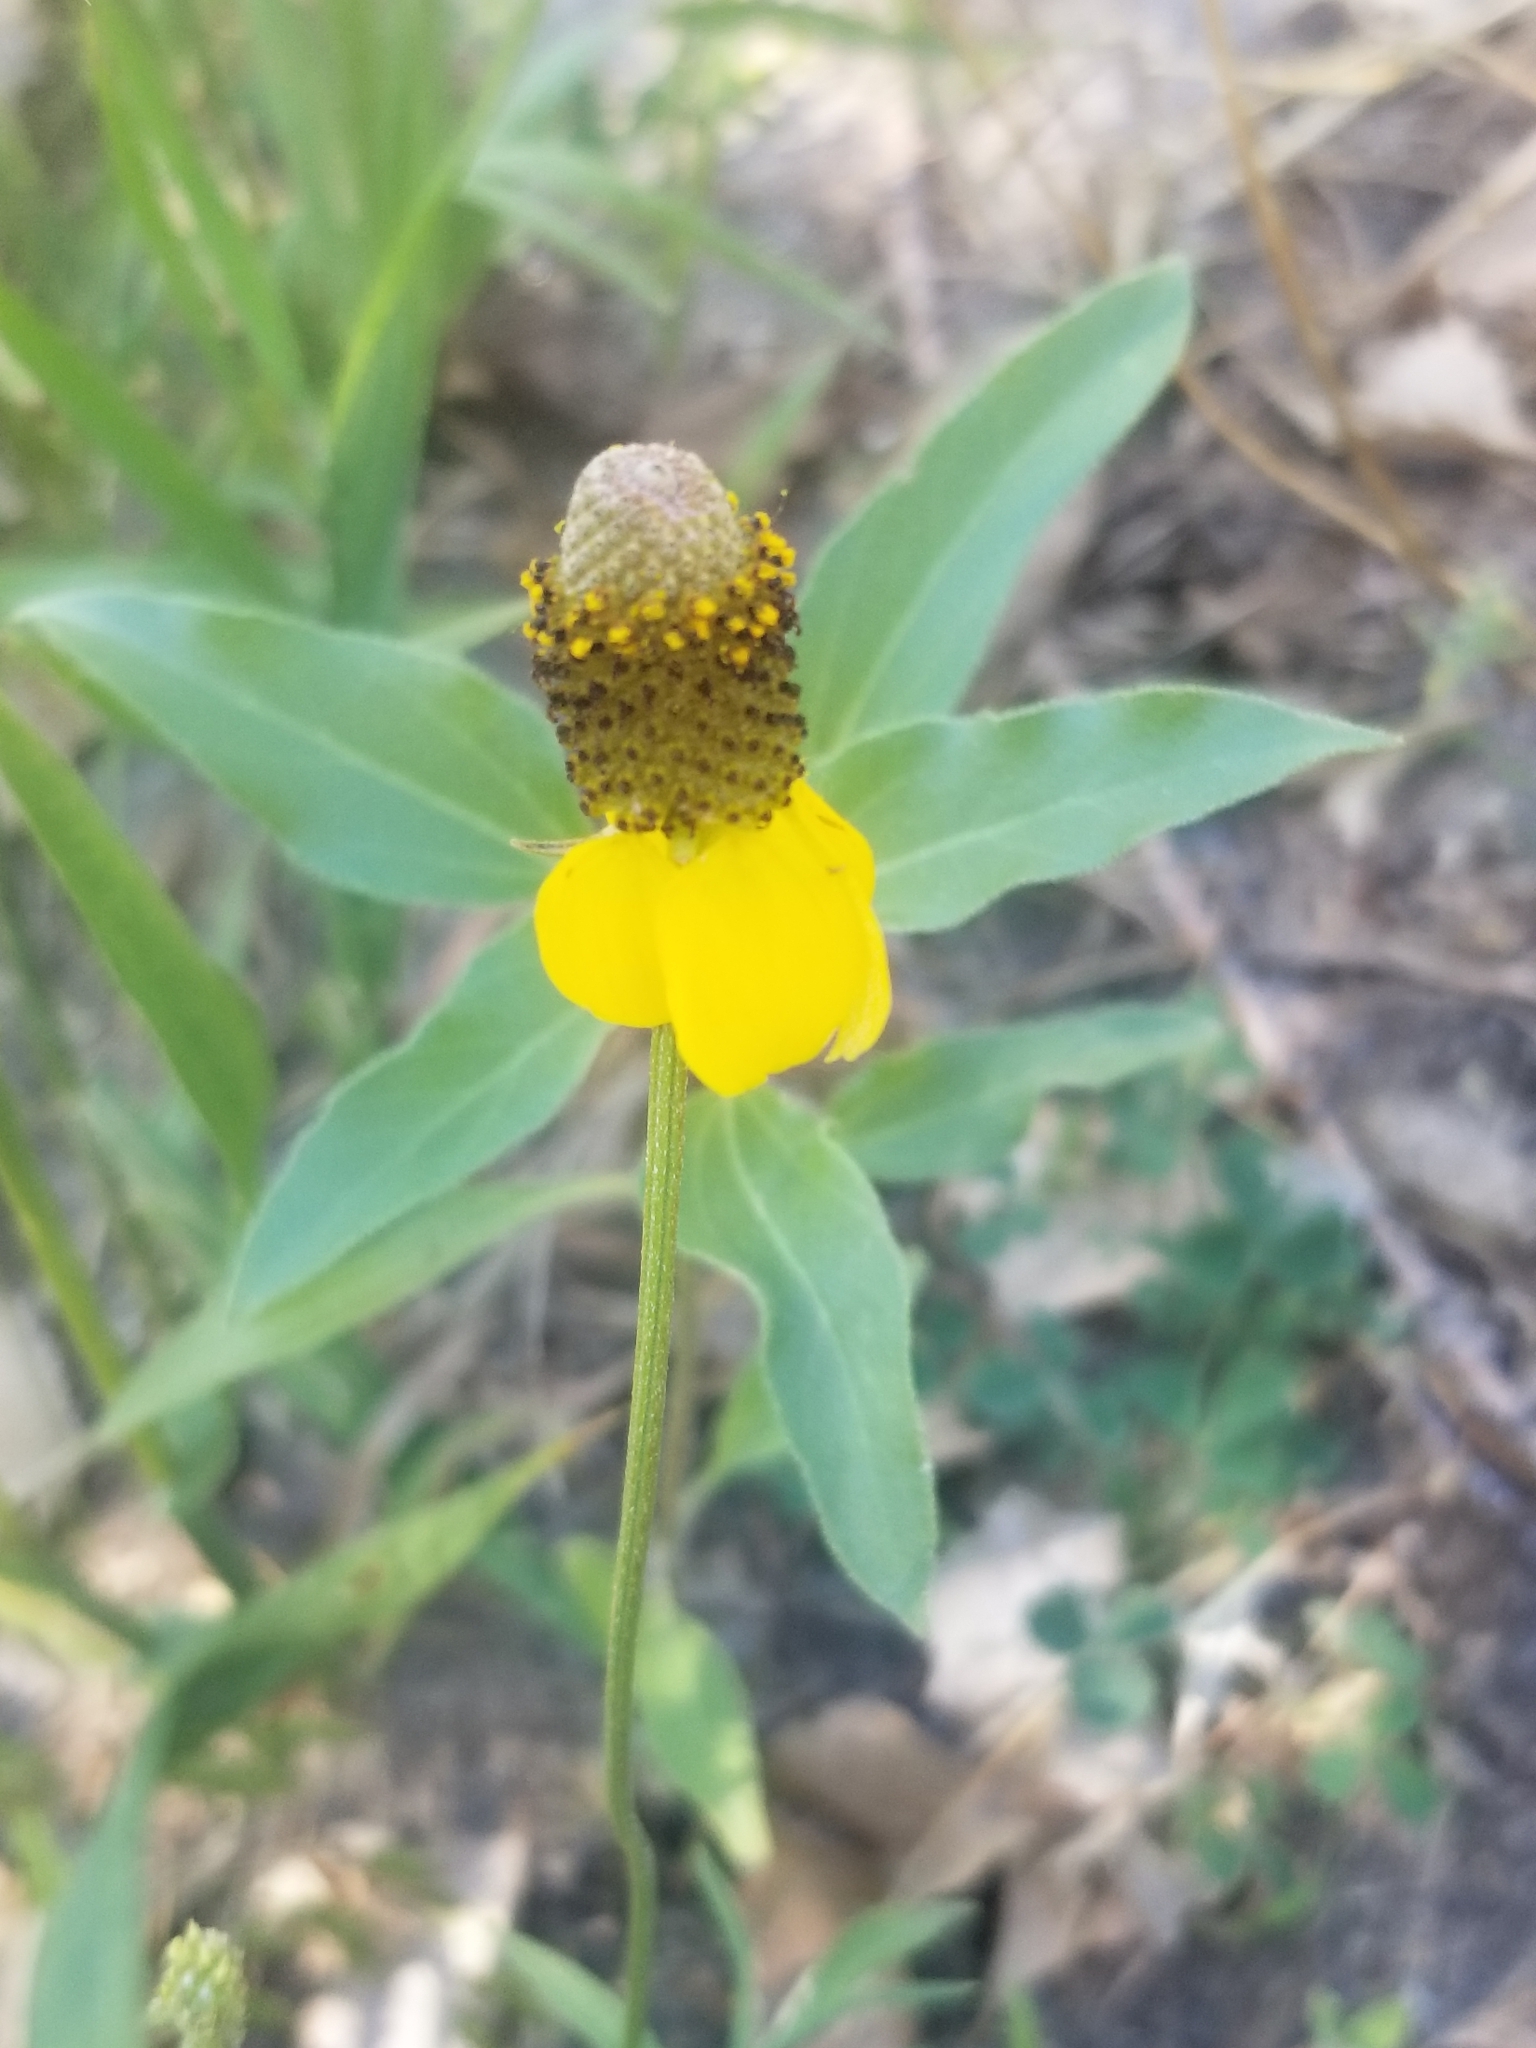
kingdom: Plantae
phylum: Tracheophyta
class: Magnoliopsida
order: Asterales
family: Asteraceae
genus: Ratibida
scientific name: Ratibida columnifera
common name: Prairie coneflower
